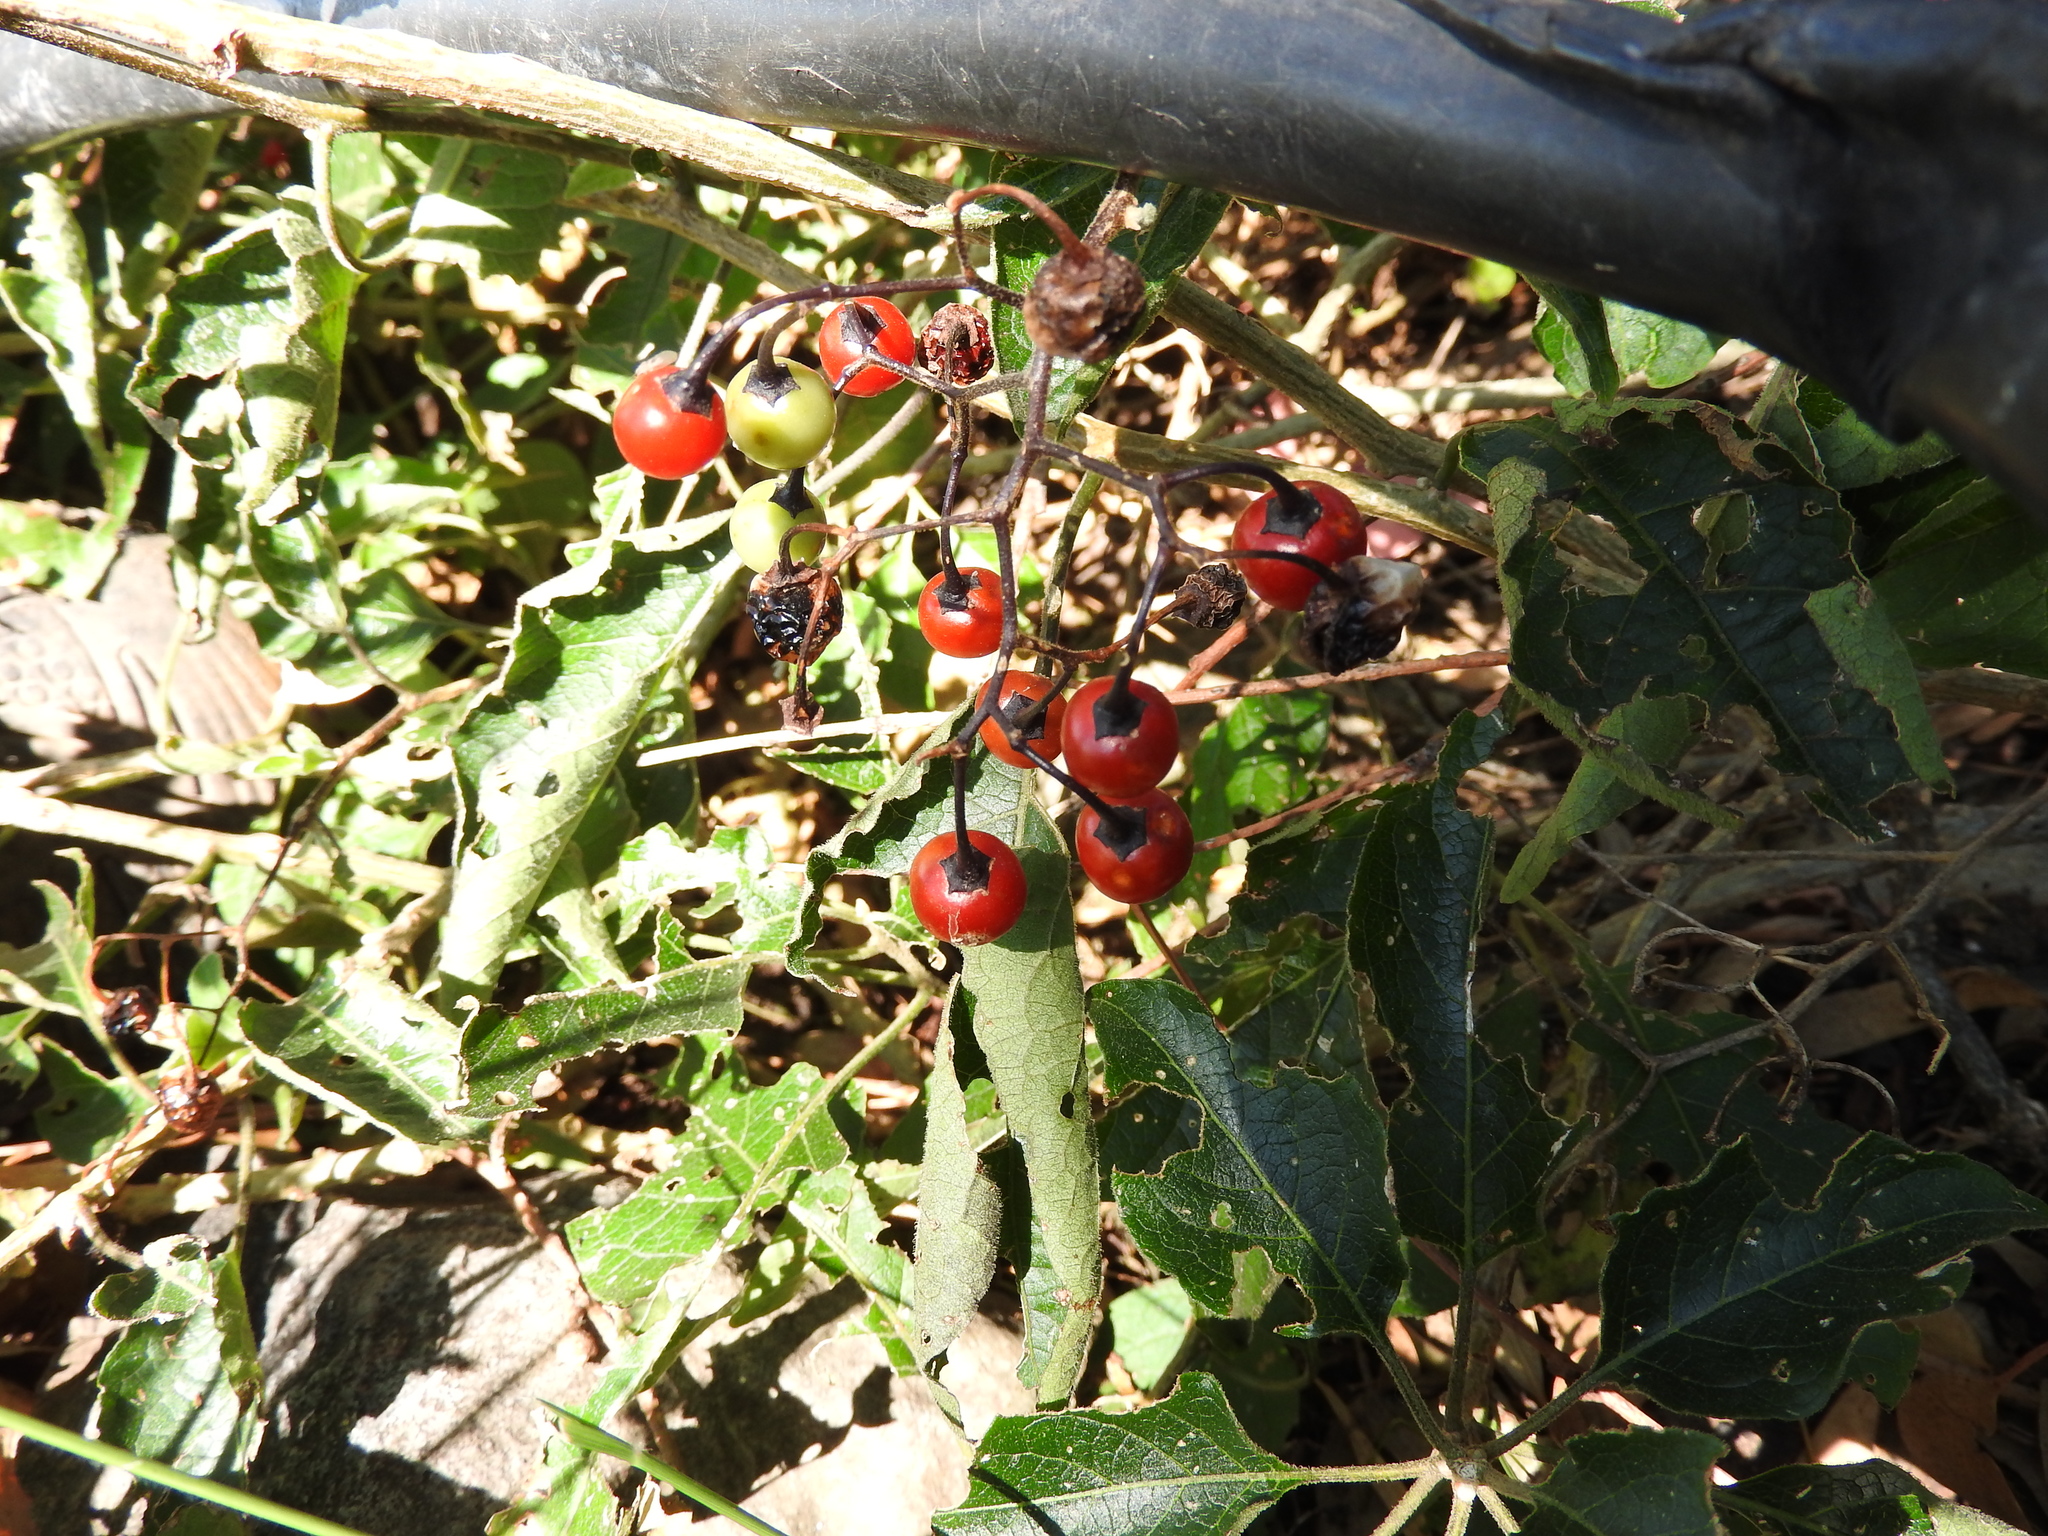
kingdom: Plantae
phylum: Tracheophyta
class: Magnoliopsida
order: Solanales
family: Solanaceae
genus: Solanum
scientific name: Solanum dulcamaroides
